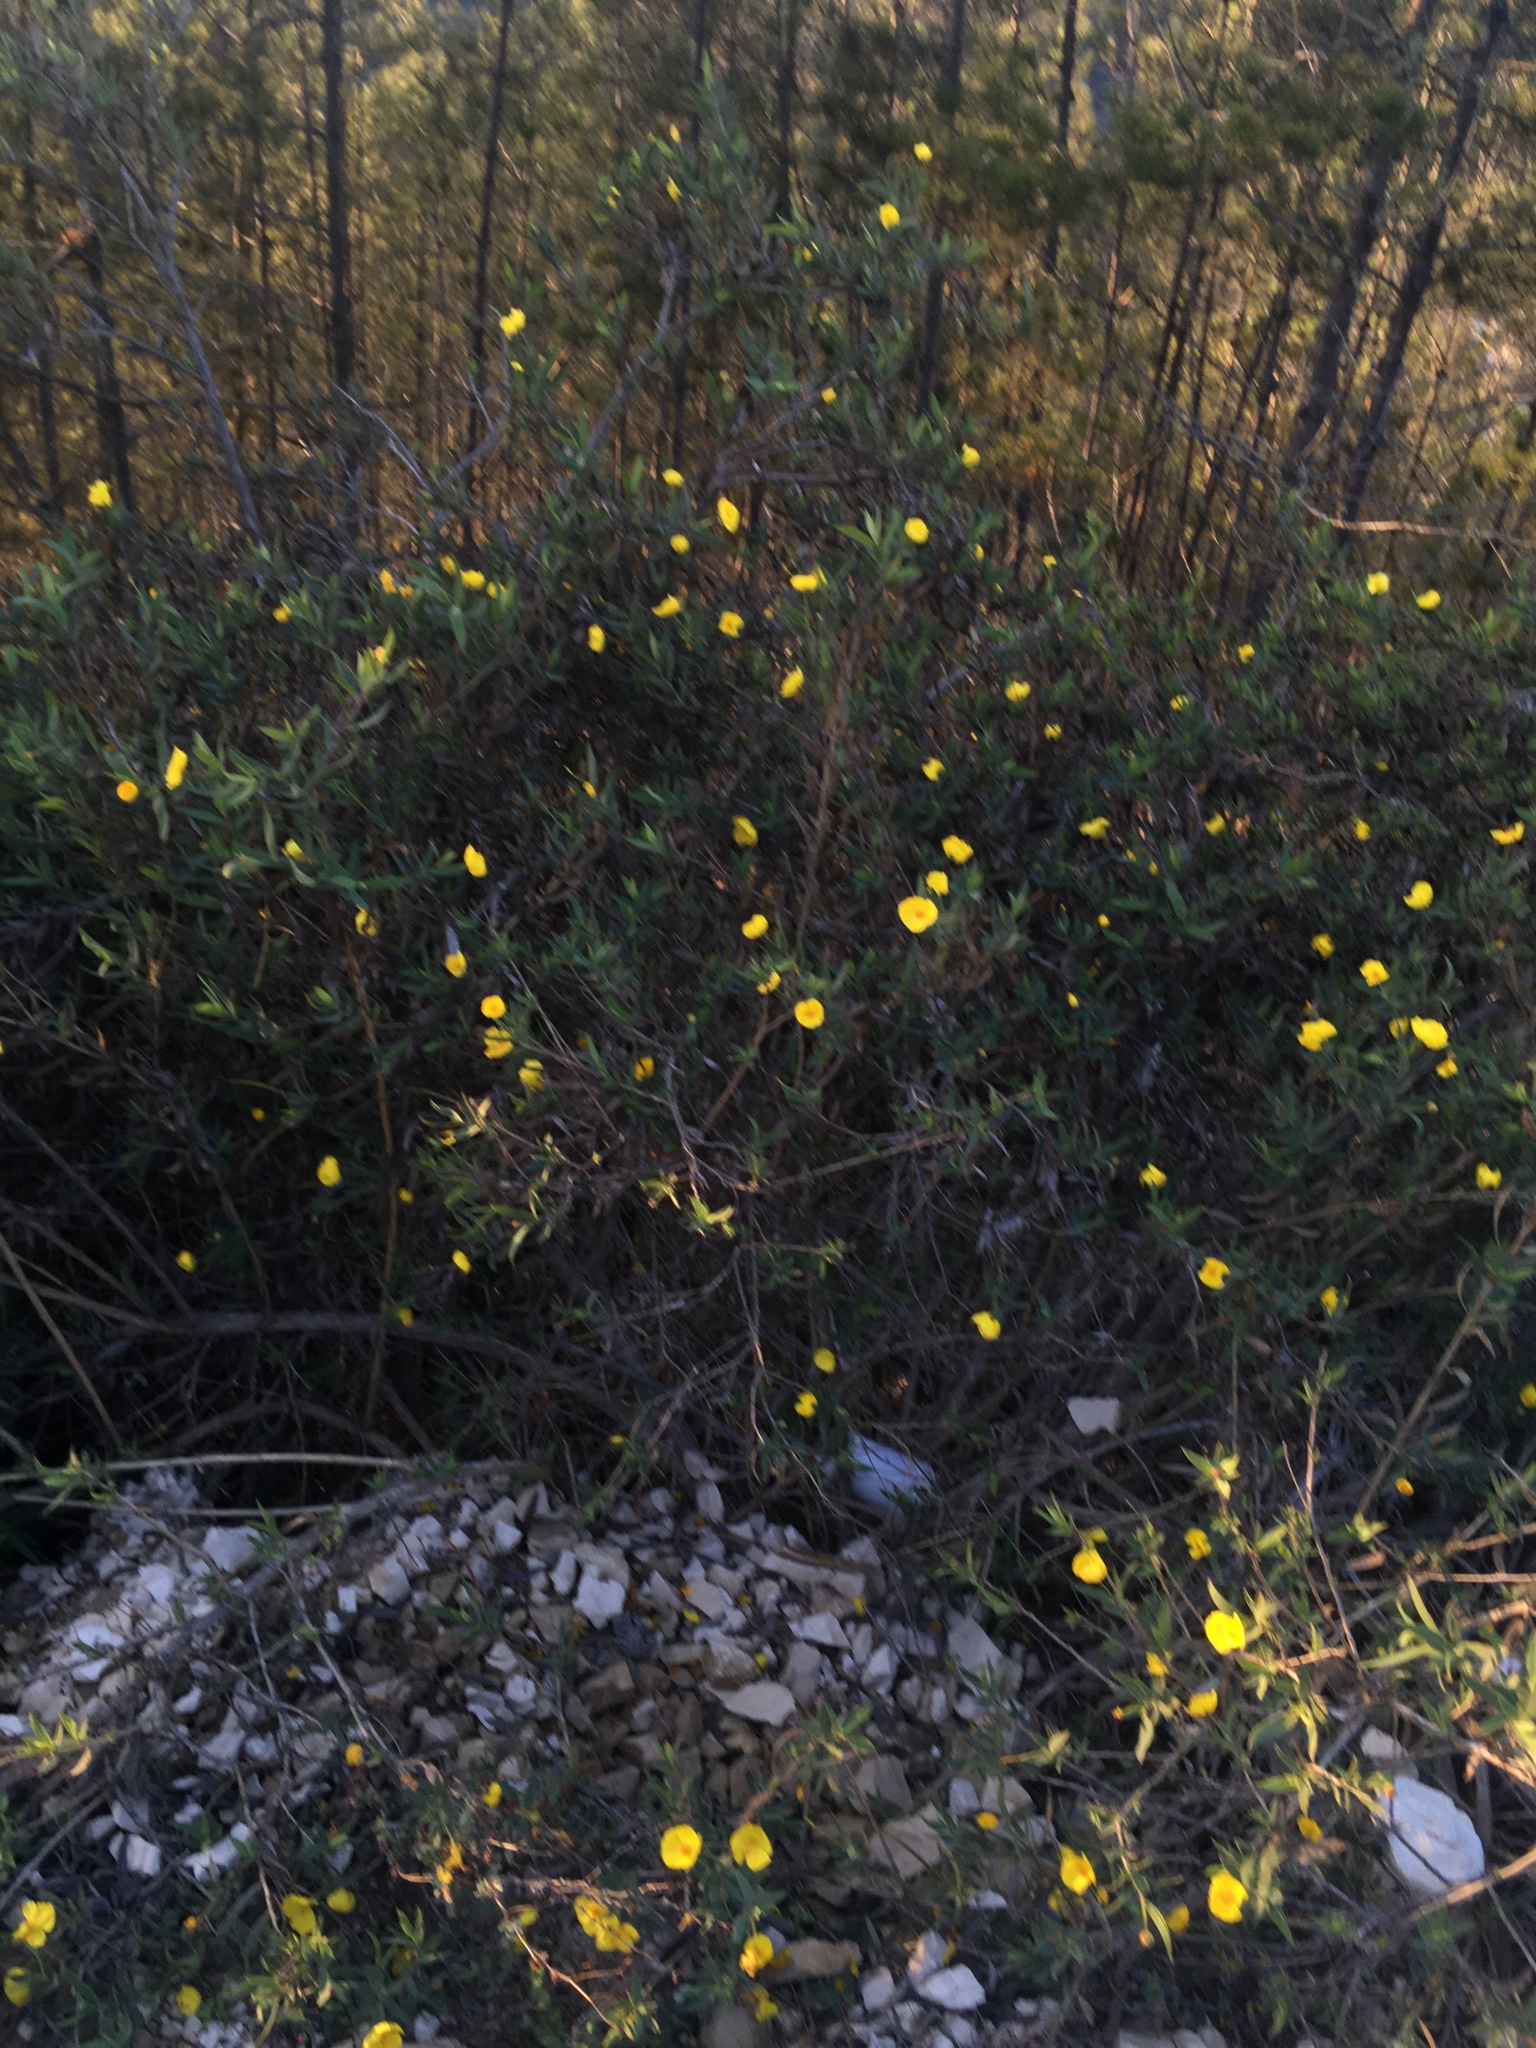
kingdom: Plantae
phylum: Tracheophyta
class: Magnoliopsida
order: Ranunculales
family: Papaveraceae
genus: Dendromecon
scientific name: Dendromecon rigida
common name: Tree poppy
